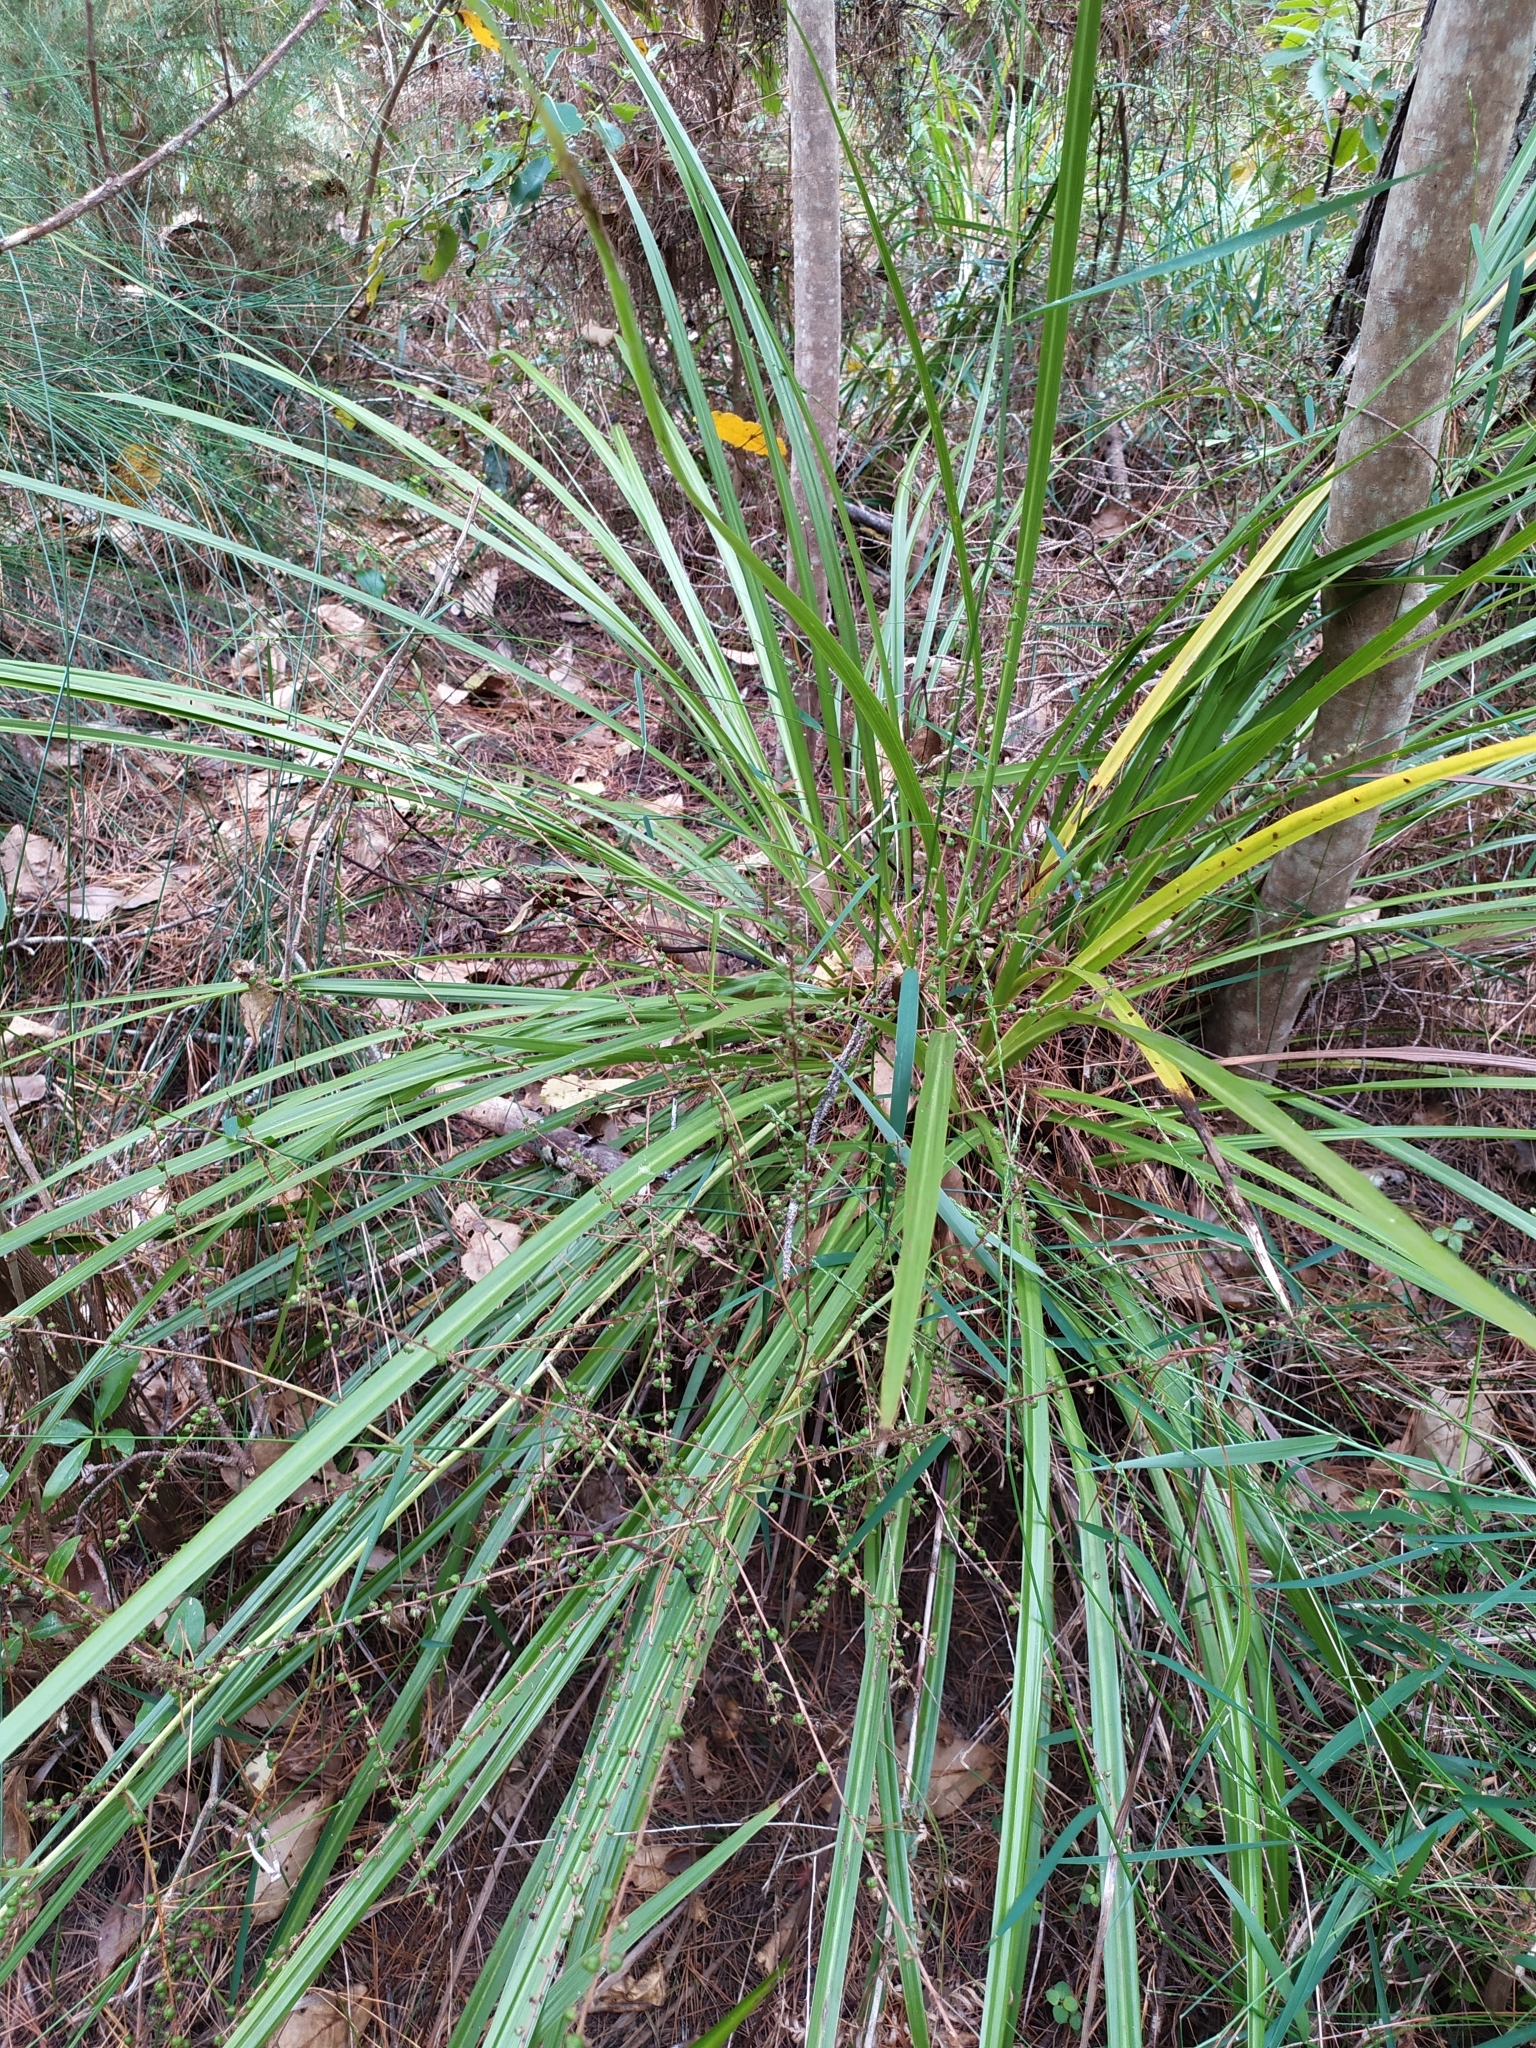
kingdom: Plantae
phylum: Tracheophyta
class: Liliopsida
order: Asparagales
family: Asparagaceae
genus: Cordyline
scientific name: Cordyline pumilio
